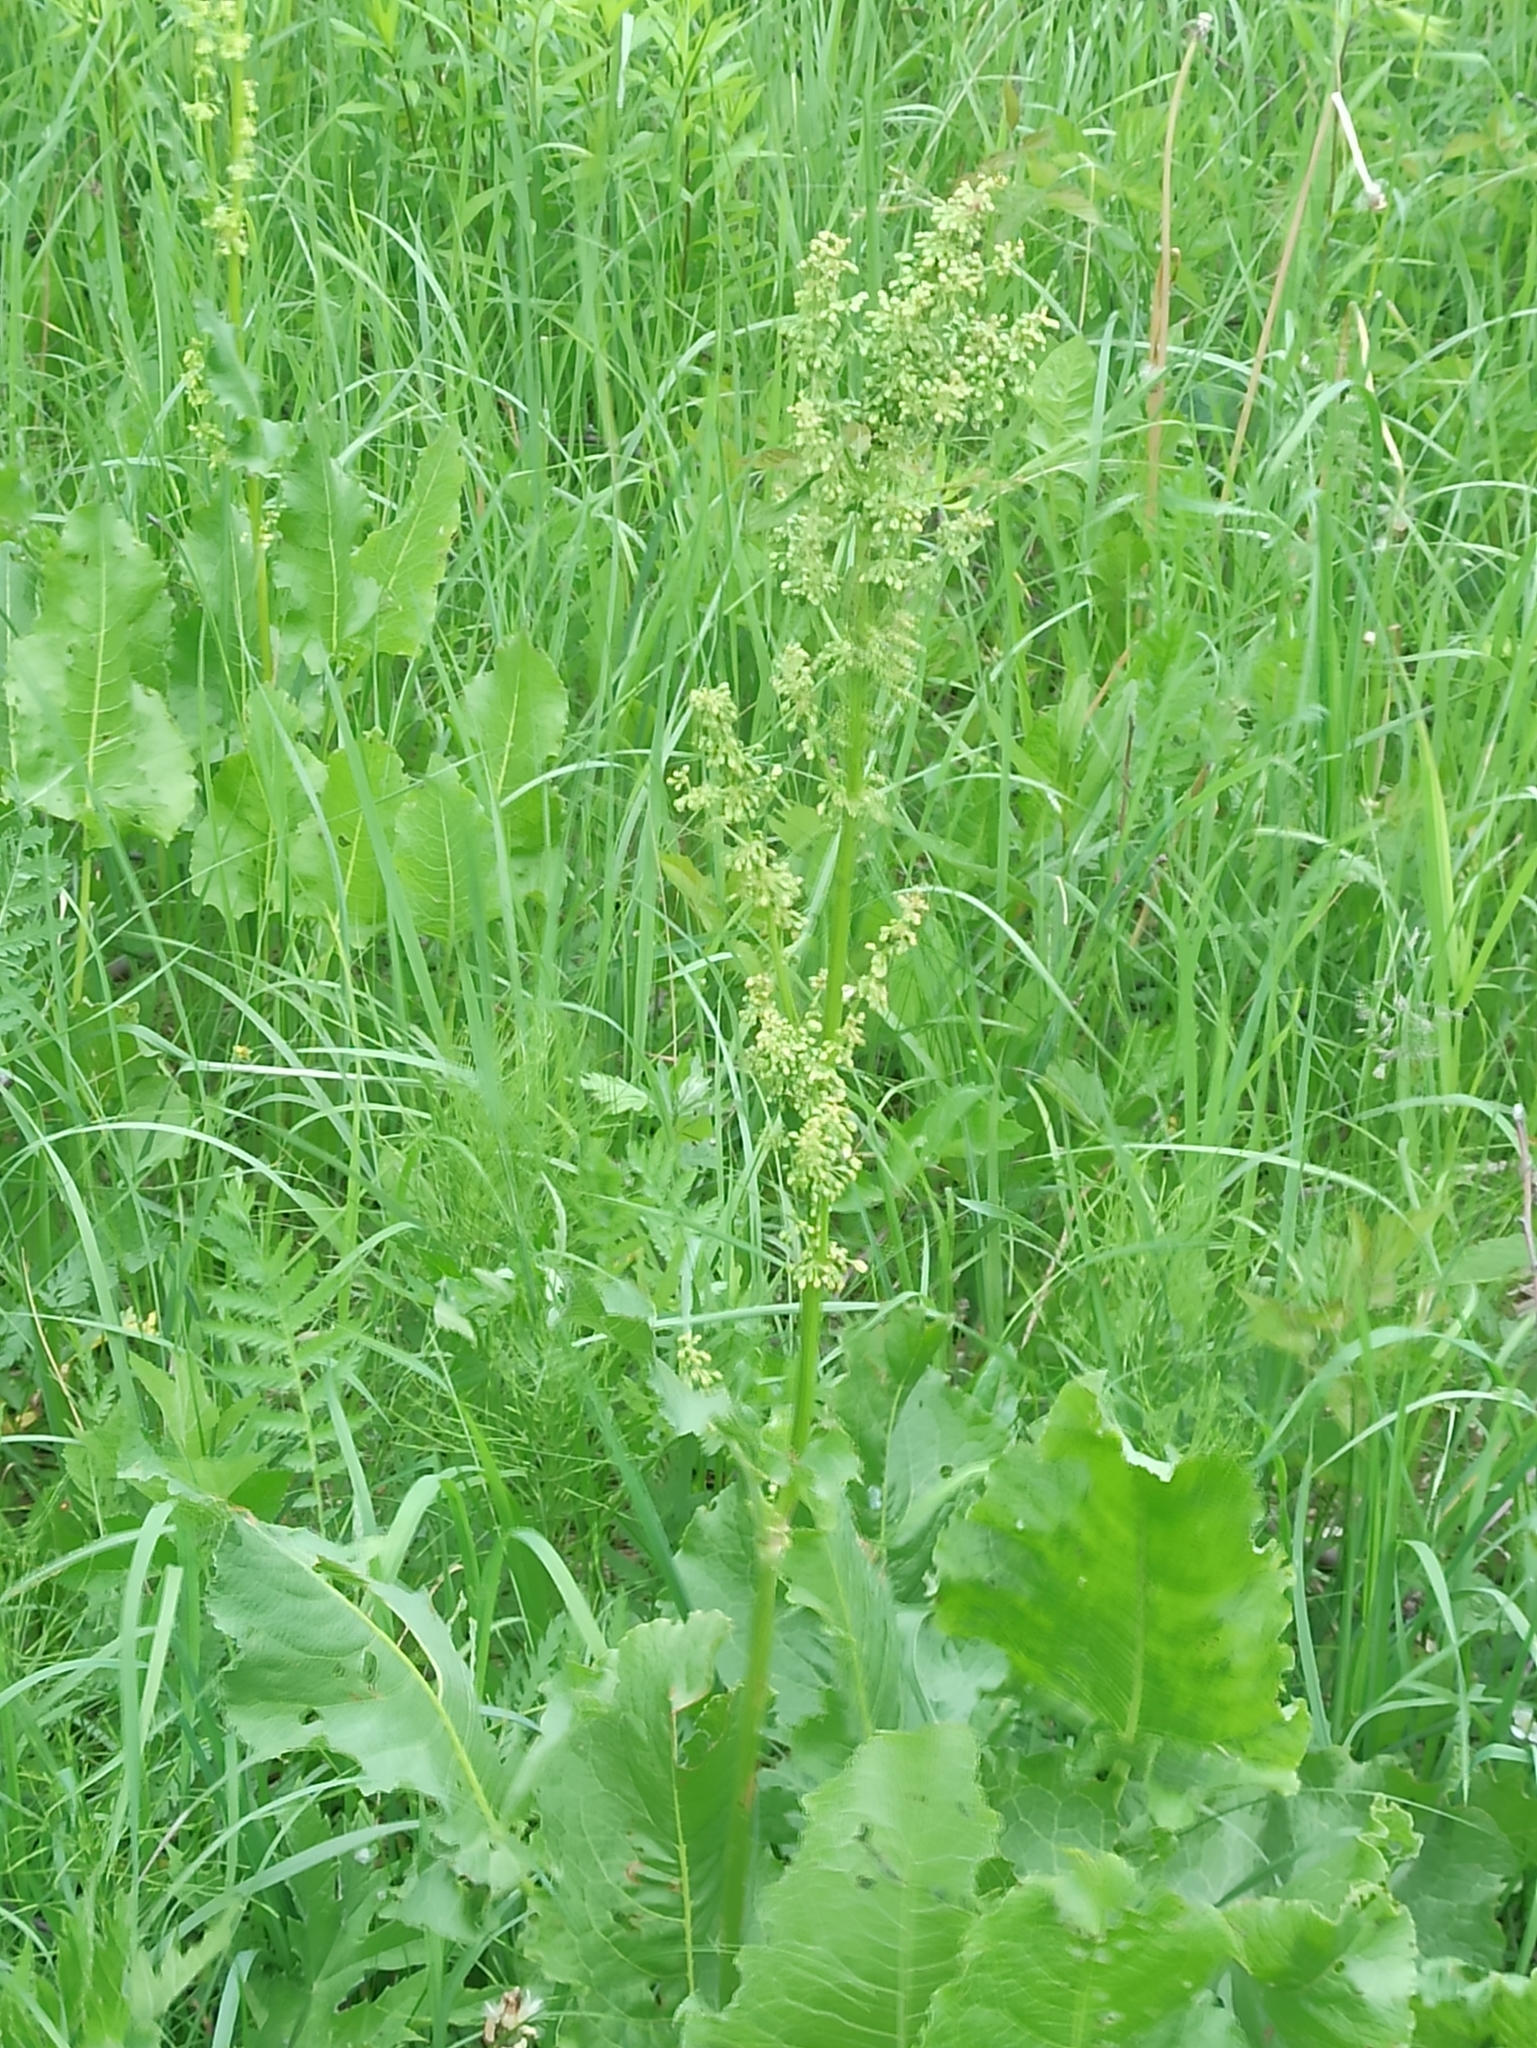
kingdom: Plantae
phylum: Tracheophyta
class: Magnoliopsida
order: Caryophyllales
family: Polygonaceae
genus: Rumex
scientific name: Rumex confertus
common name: Russian dock
